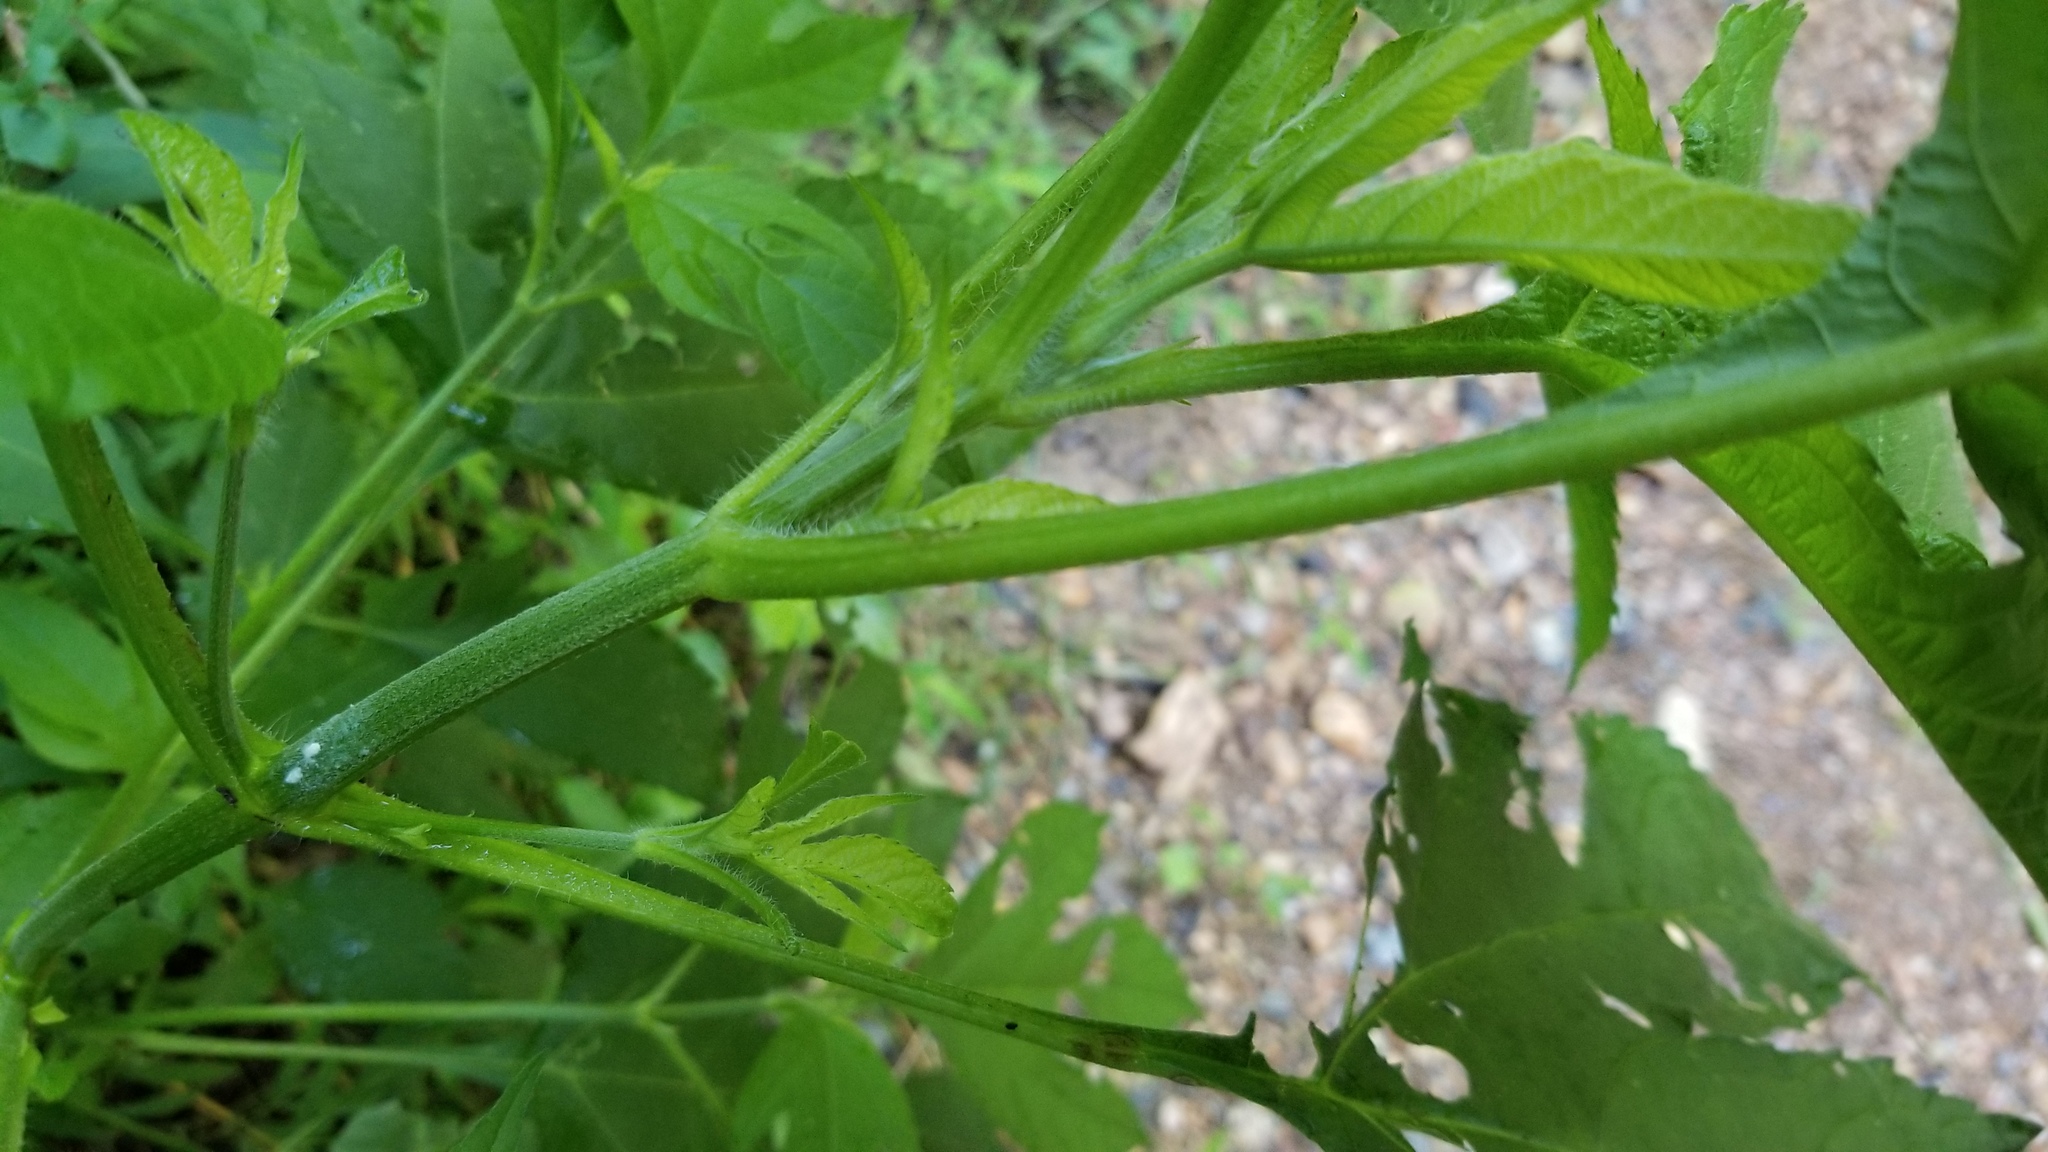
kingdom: Plantae
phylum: Tracheophyta
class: Magnoliopsida
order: Asterales
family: Asteraceae
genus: Ambrosia
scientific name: Ambrosia trifida
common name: Giant ragweed
